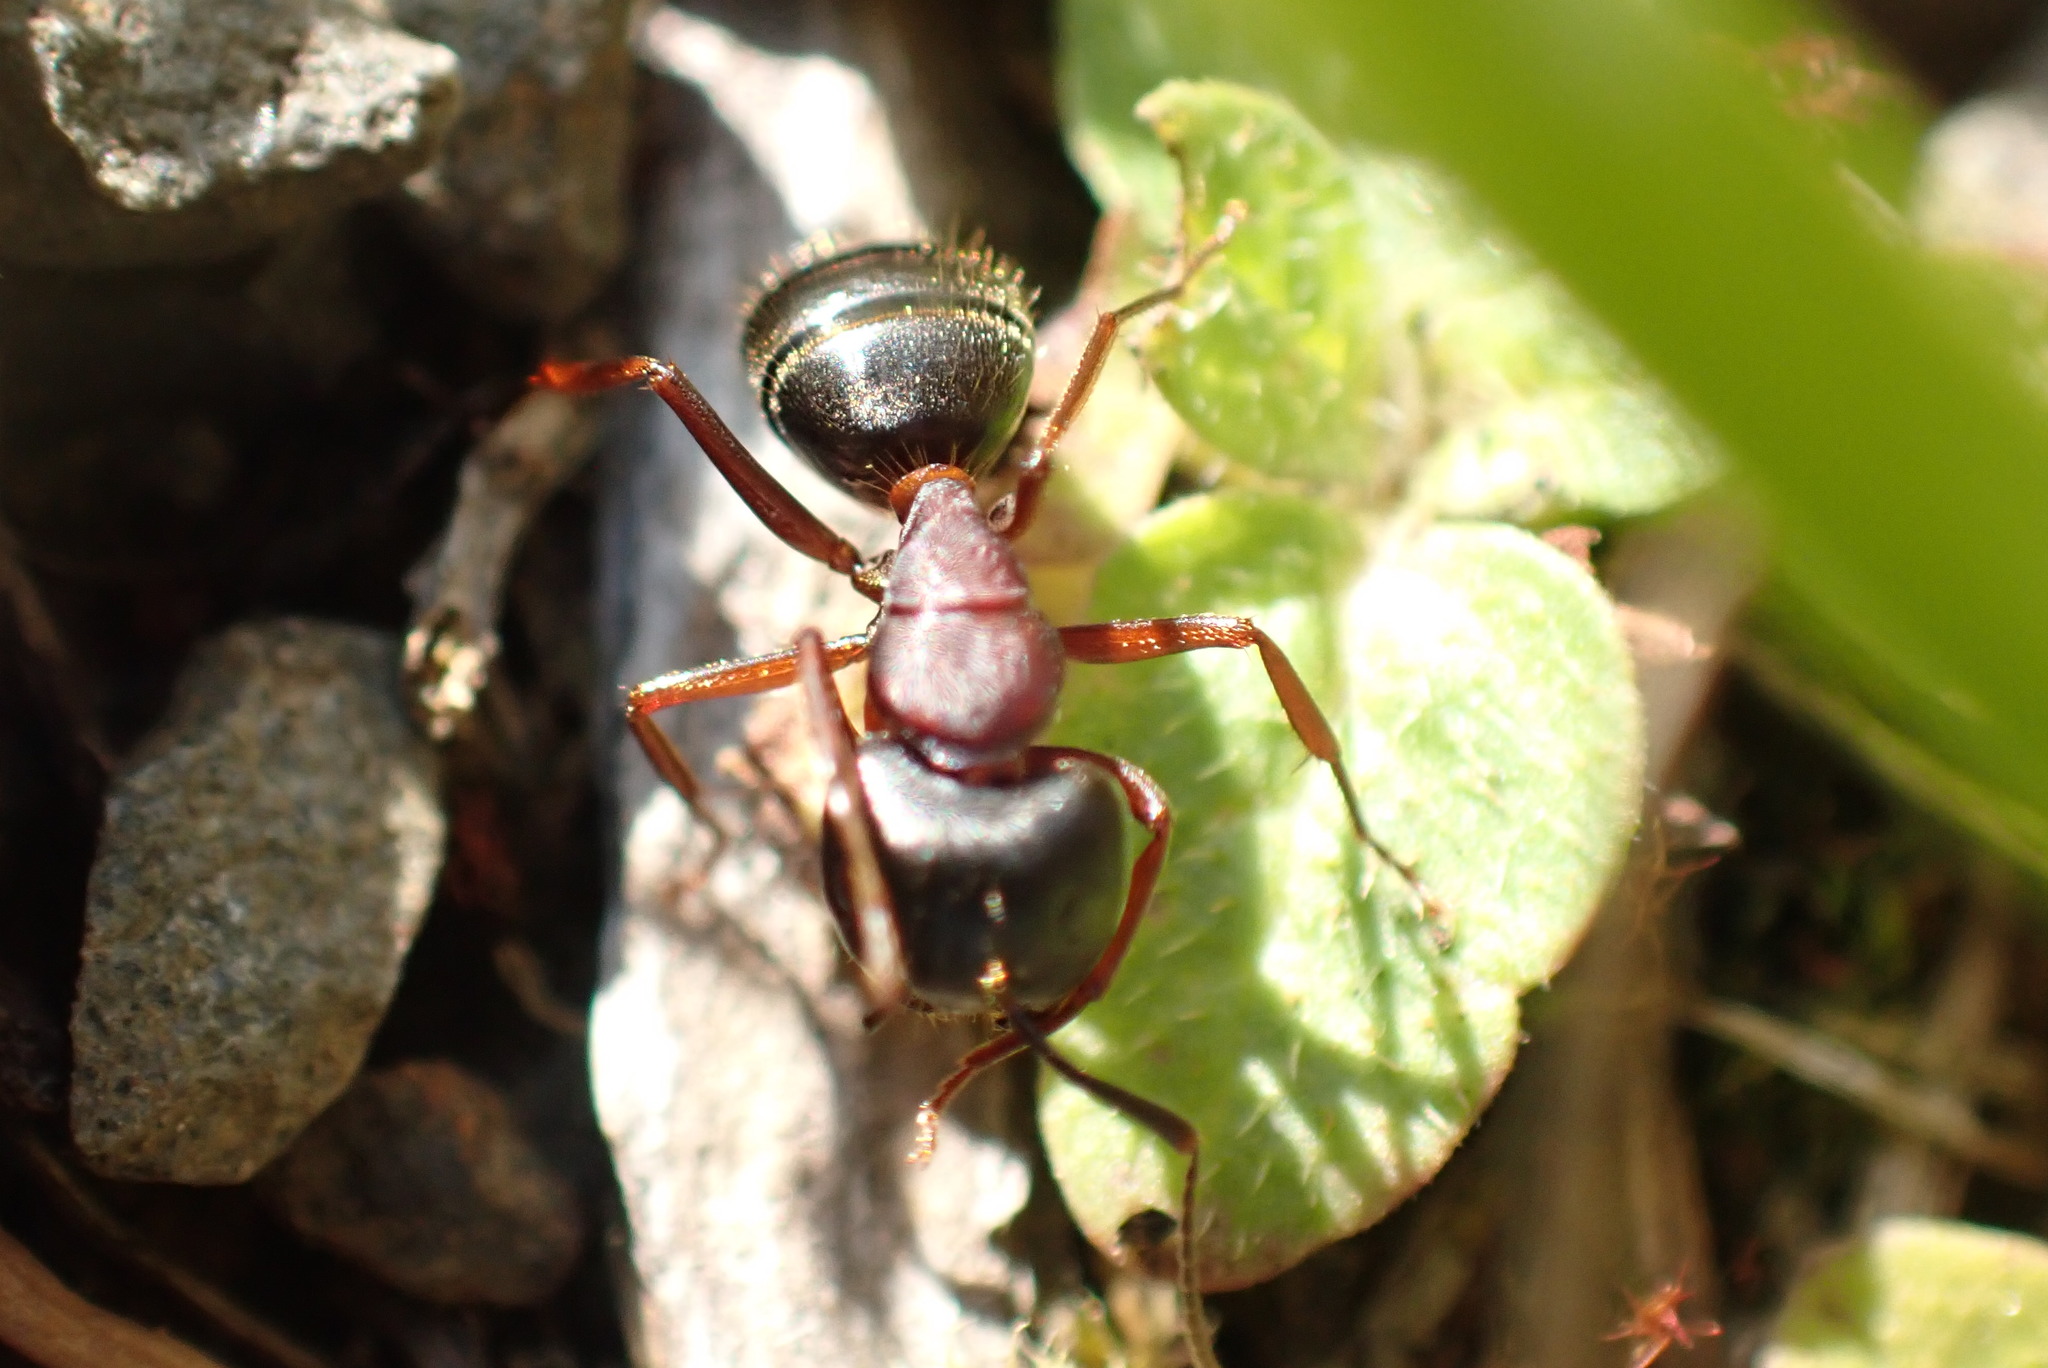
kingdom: Animalia
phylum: Arthropoda
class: Insecta
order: Hymenoptera
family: Formicidae
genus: Camponotus
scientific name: Camponotus novaeboracensis
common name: New york carpenter ant
